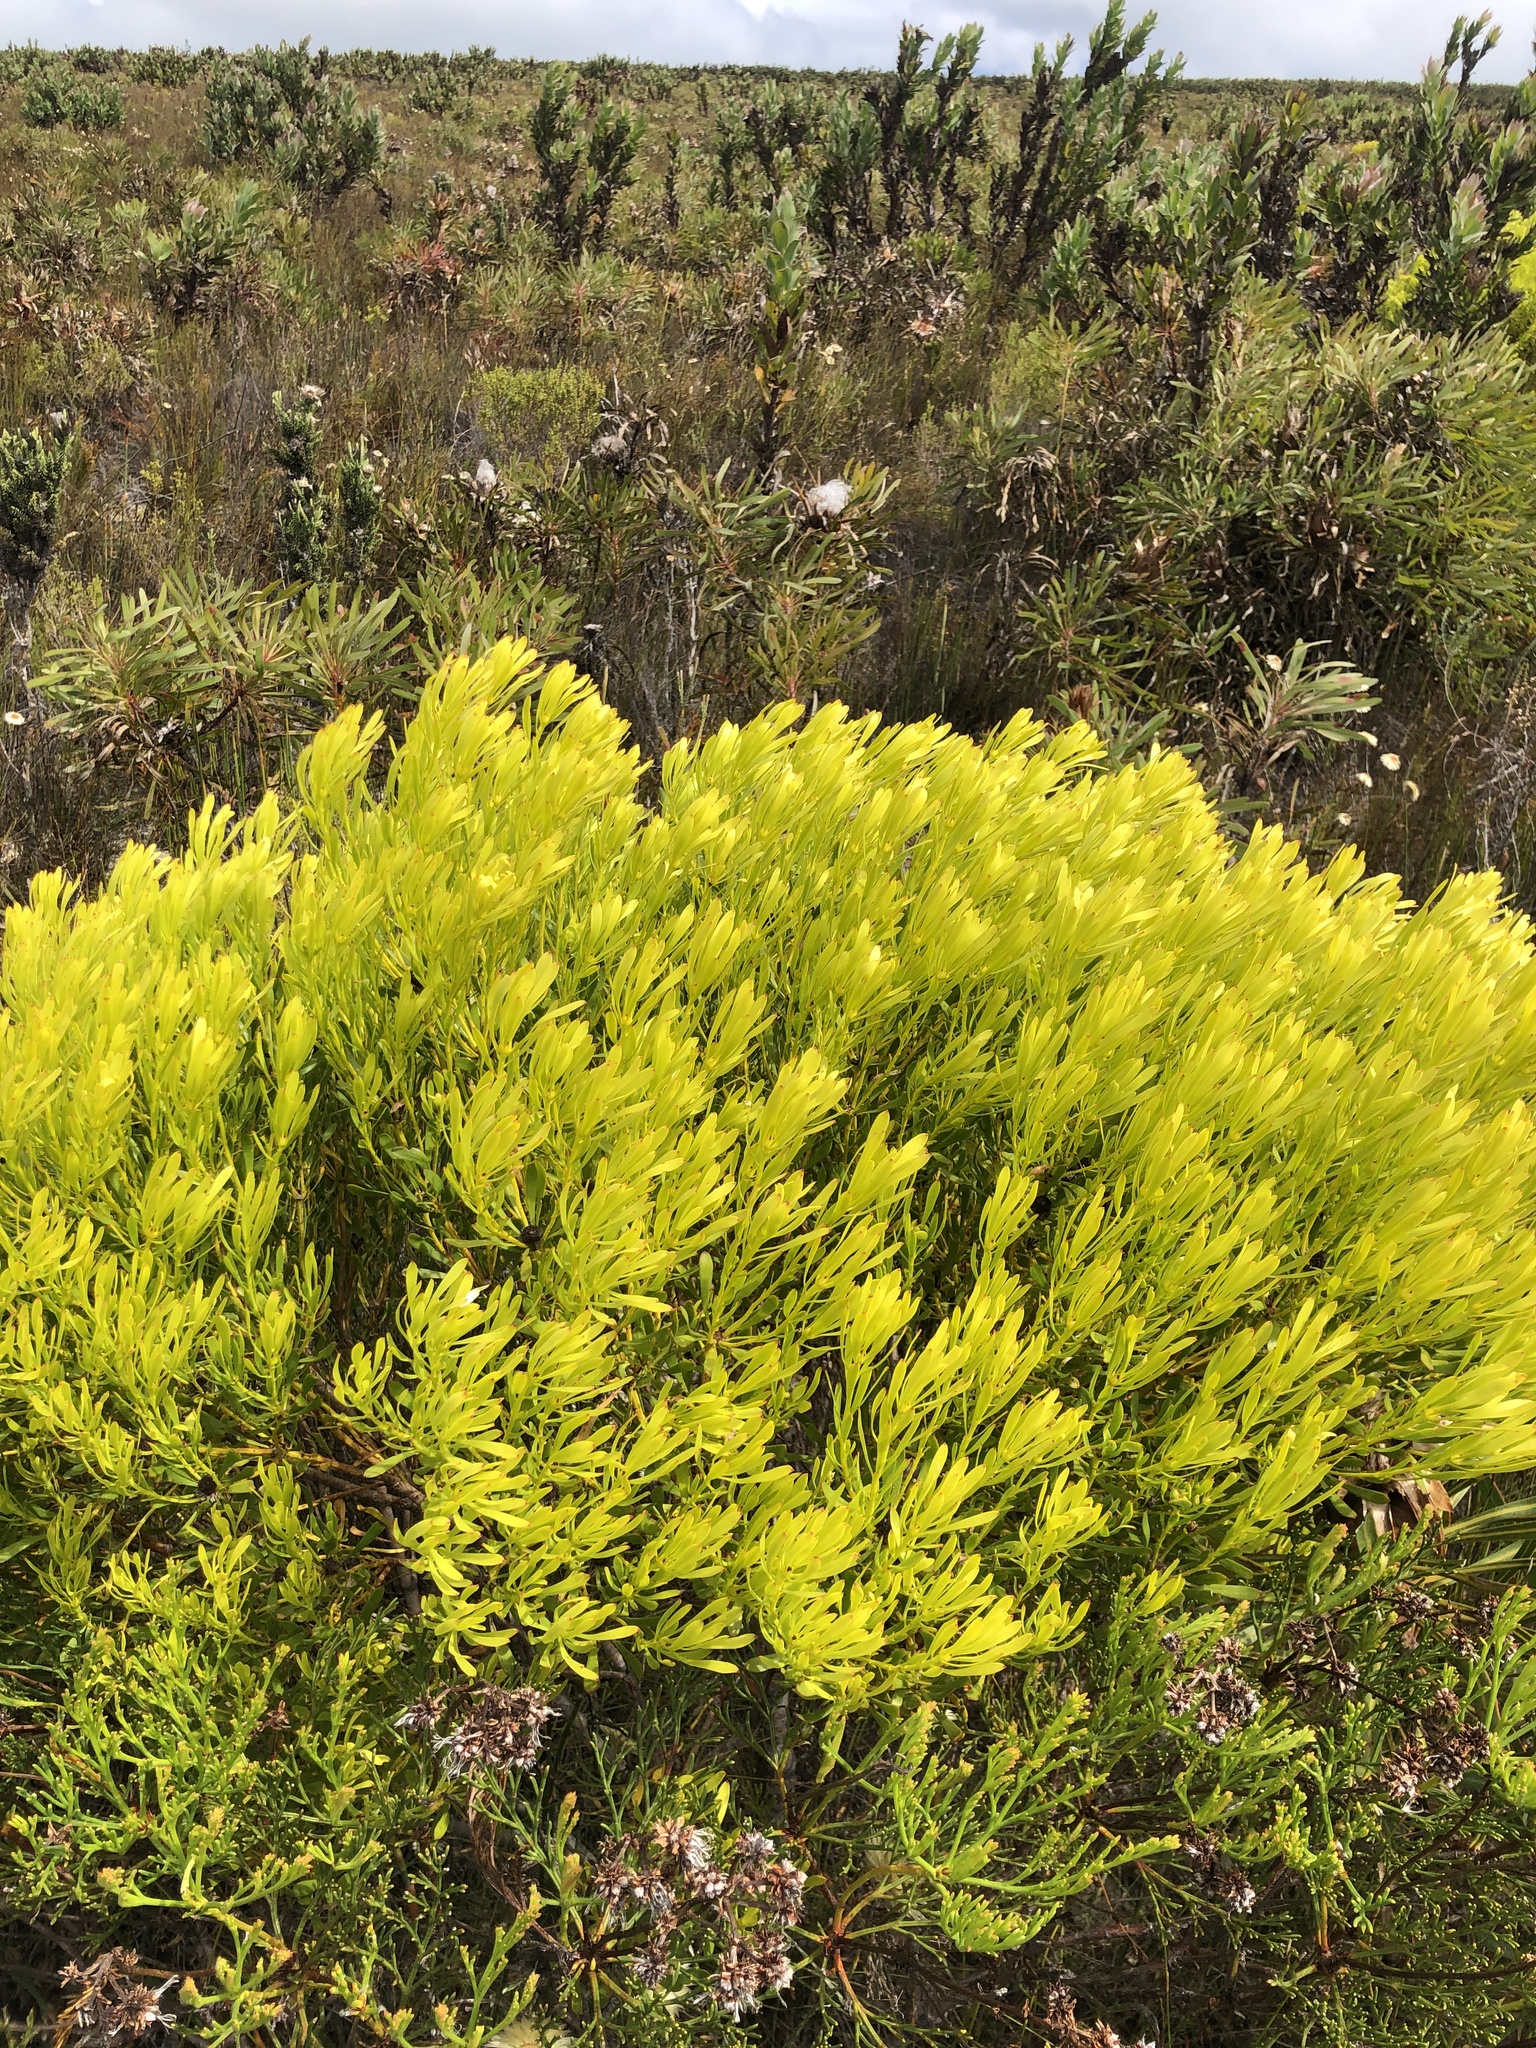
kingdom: Plantae
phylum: Tracheophyta
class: Magnoliopsida
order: Proteales
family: Proteaceae
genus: Leucadendron
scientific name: Leucadendron platyspermum
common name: Plate-seed conebush
